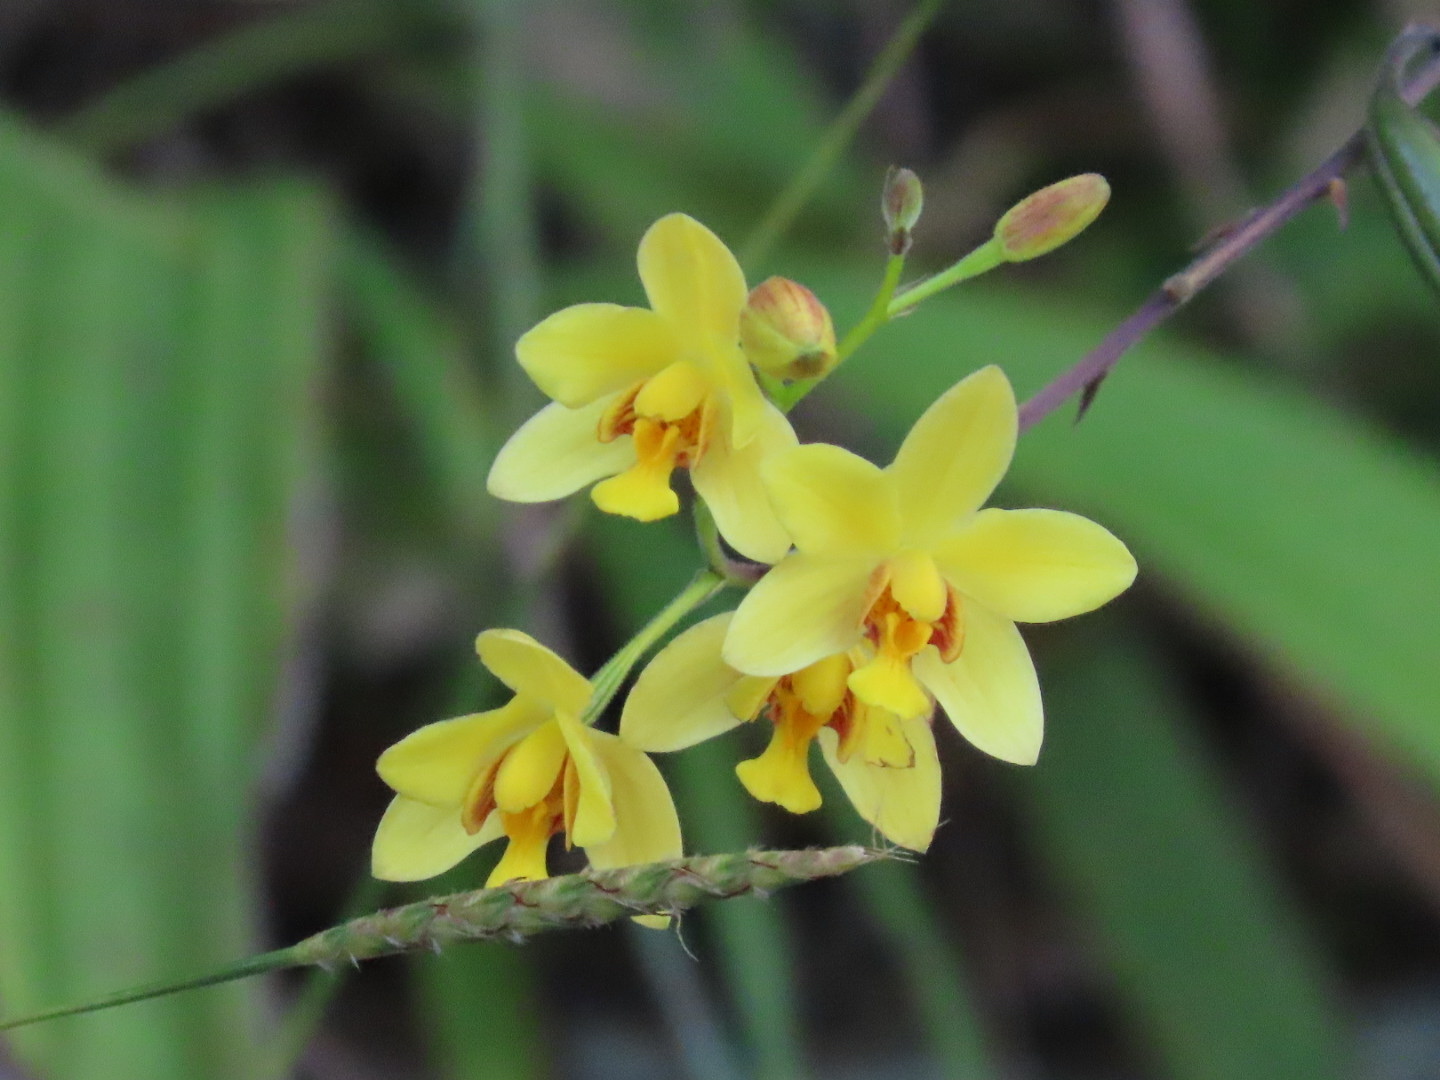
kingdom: Plantae
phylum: Tracheophyta
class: Liliopsida
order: Asparagales
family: Orchidaceae
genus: Spathoglottis
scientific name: Spathoglottis pubescens
